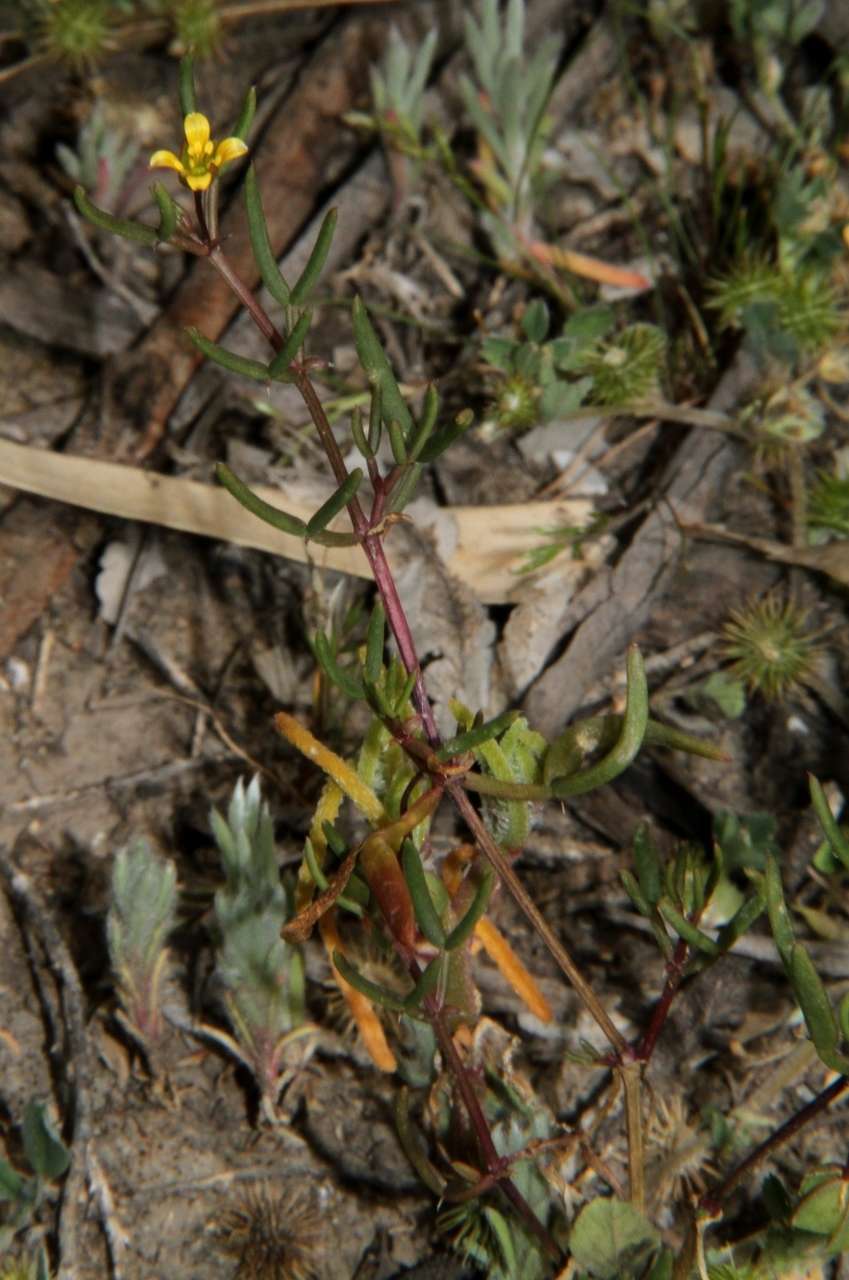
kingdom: Plantae
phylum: Tracheophyta
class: Magnoliopsida
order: Zygophyllales
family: Zygophyllaceae
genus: Roepera
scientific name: Roepera angustifolia
